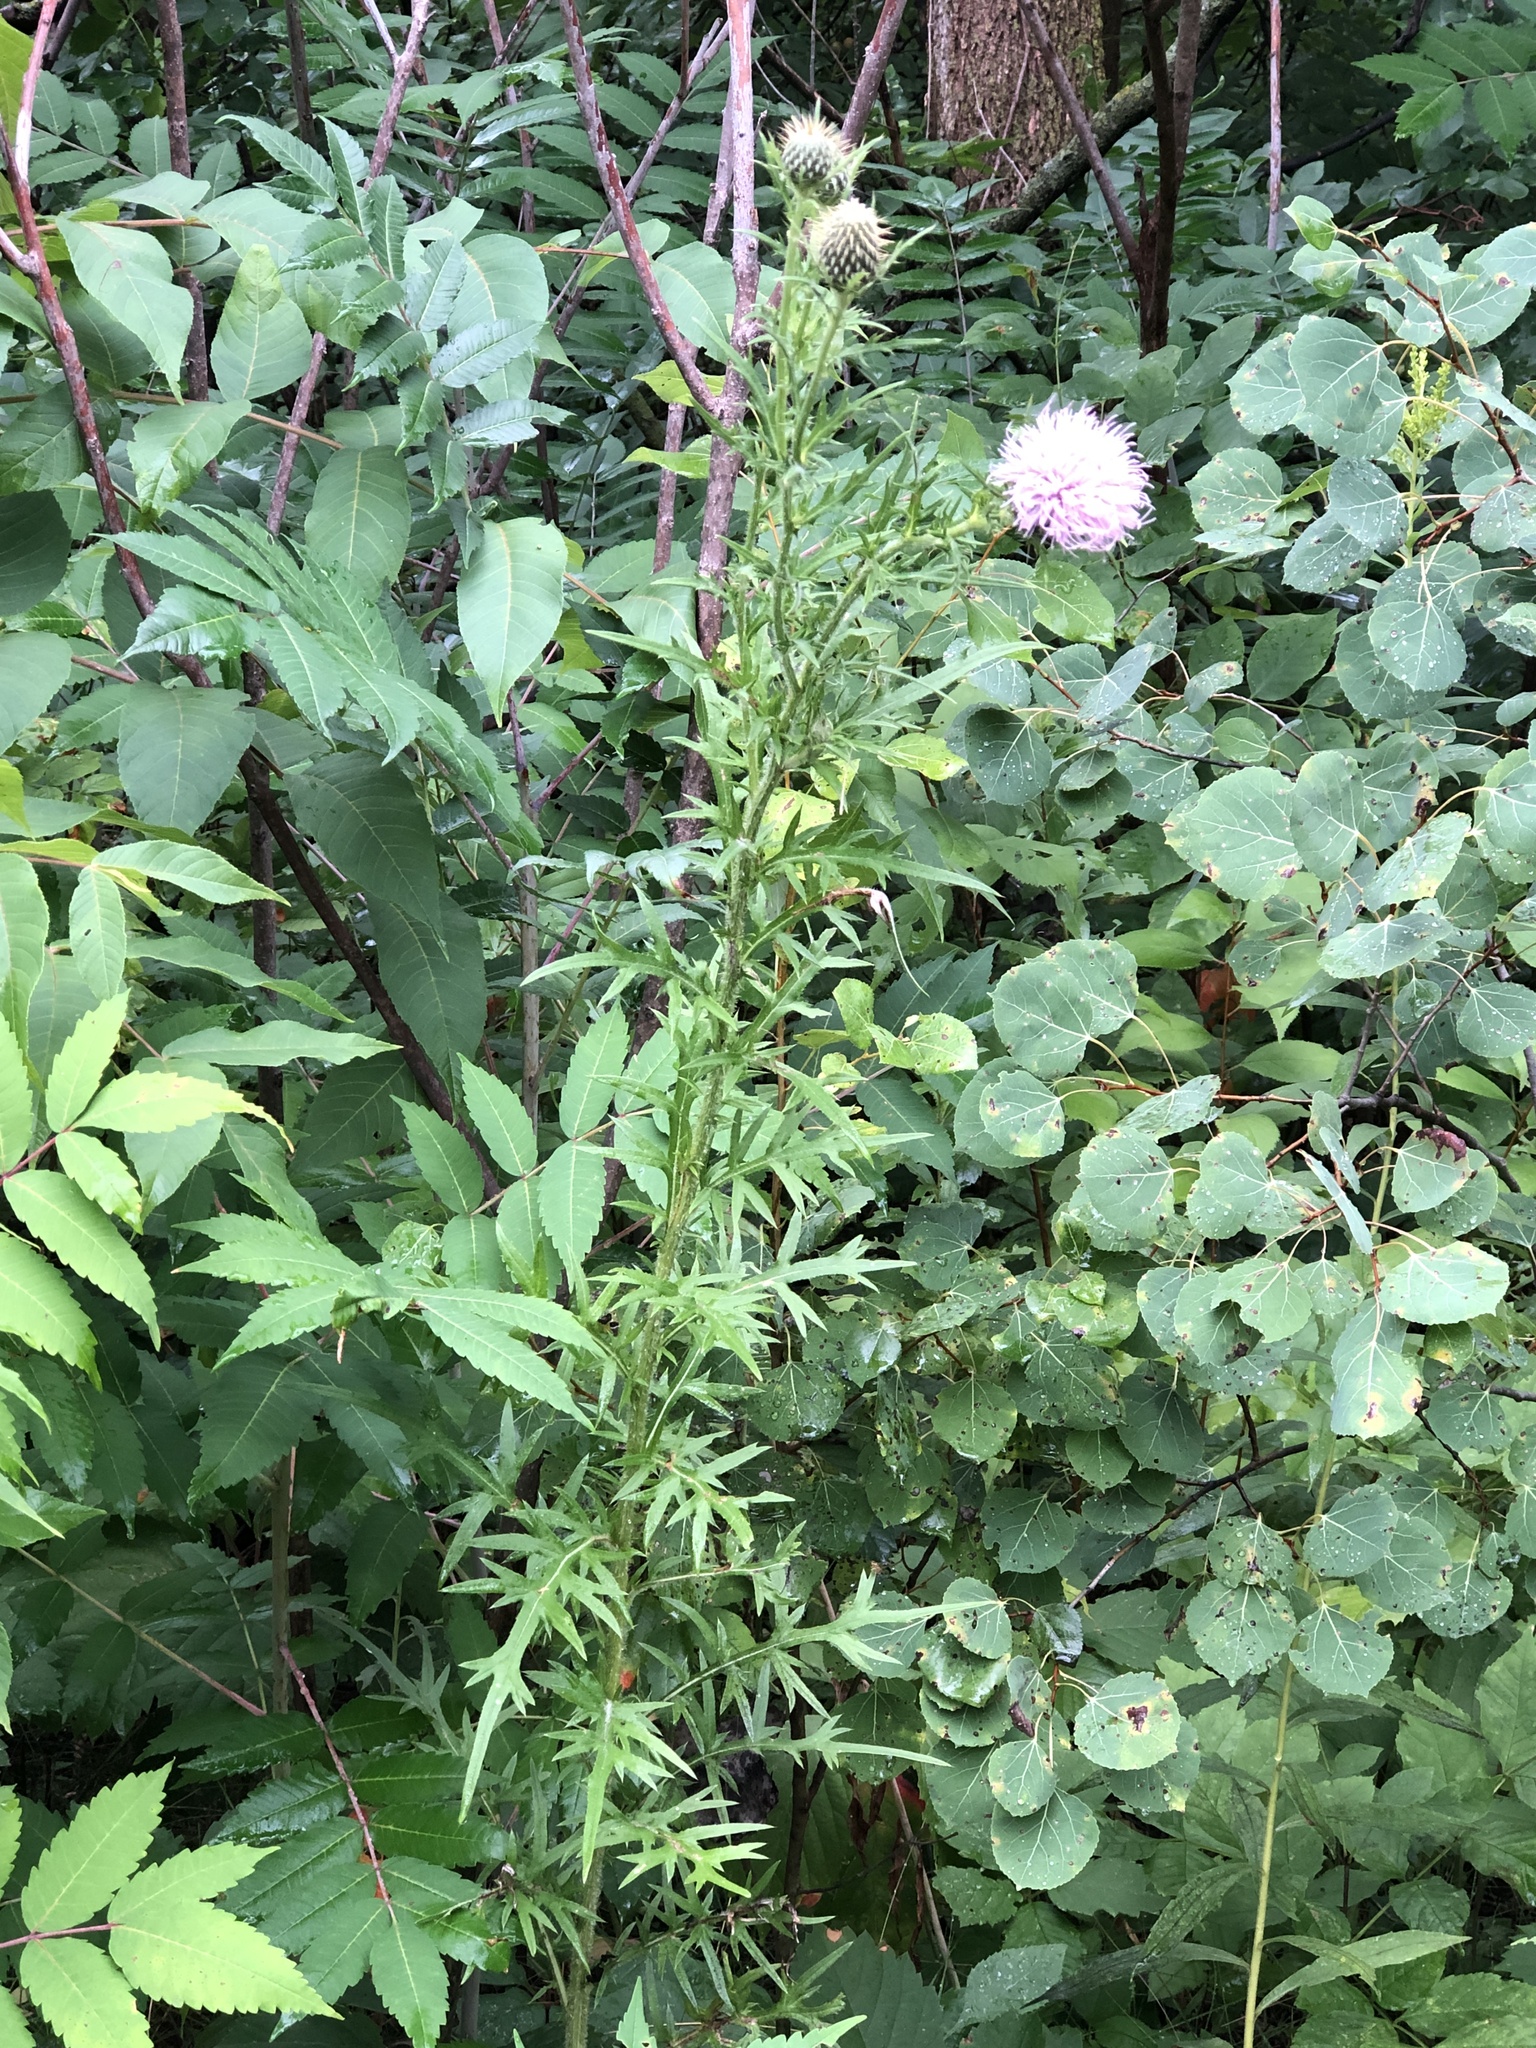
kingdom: Plantae
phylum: Tracheophyta
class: Magnoliopsida
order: Asterales
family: Asteraceae
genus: Cirsium
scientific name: Cirsium discolor
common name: Field thistle
